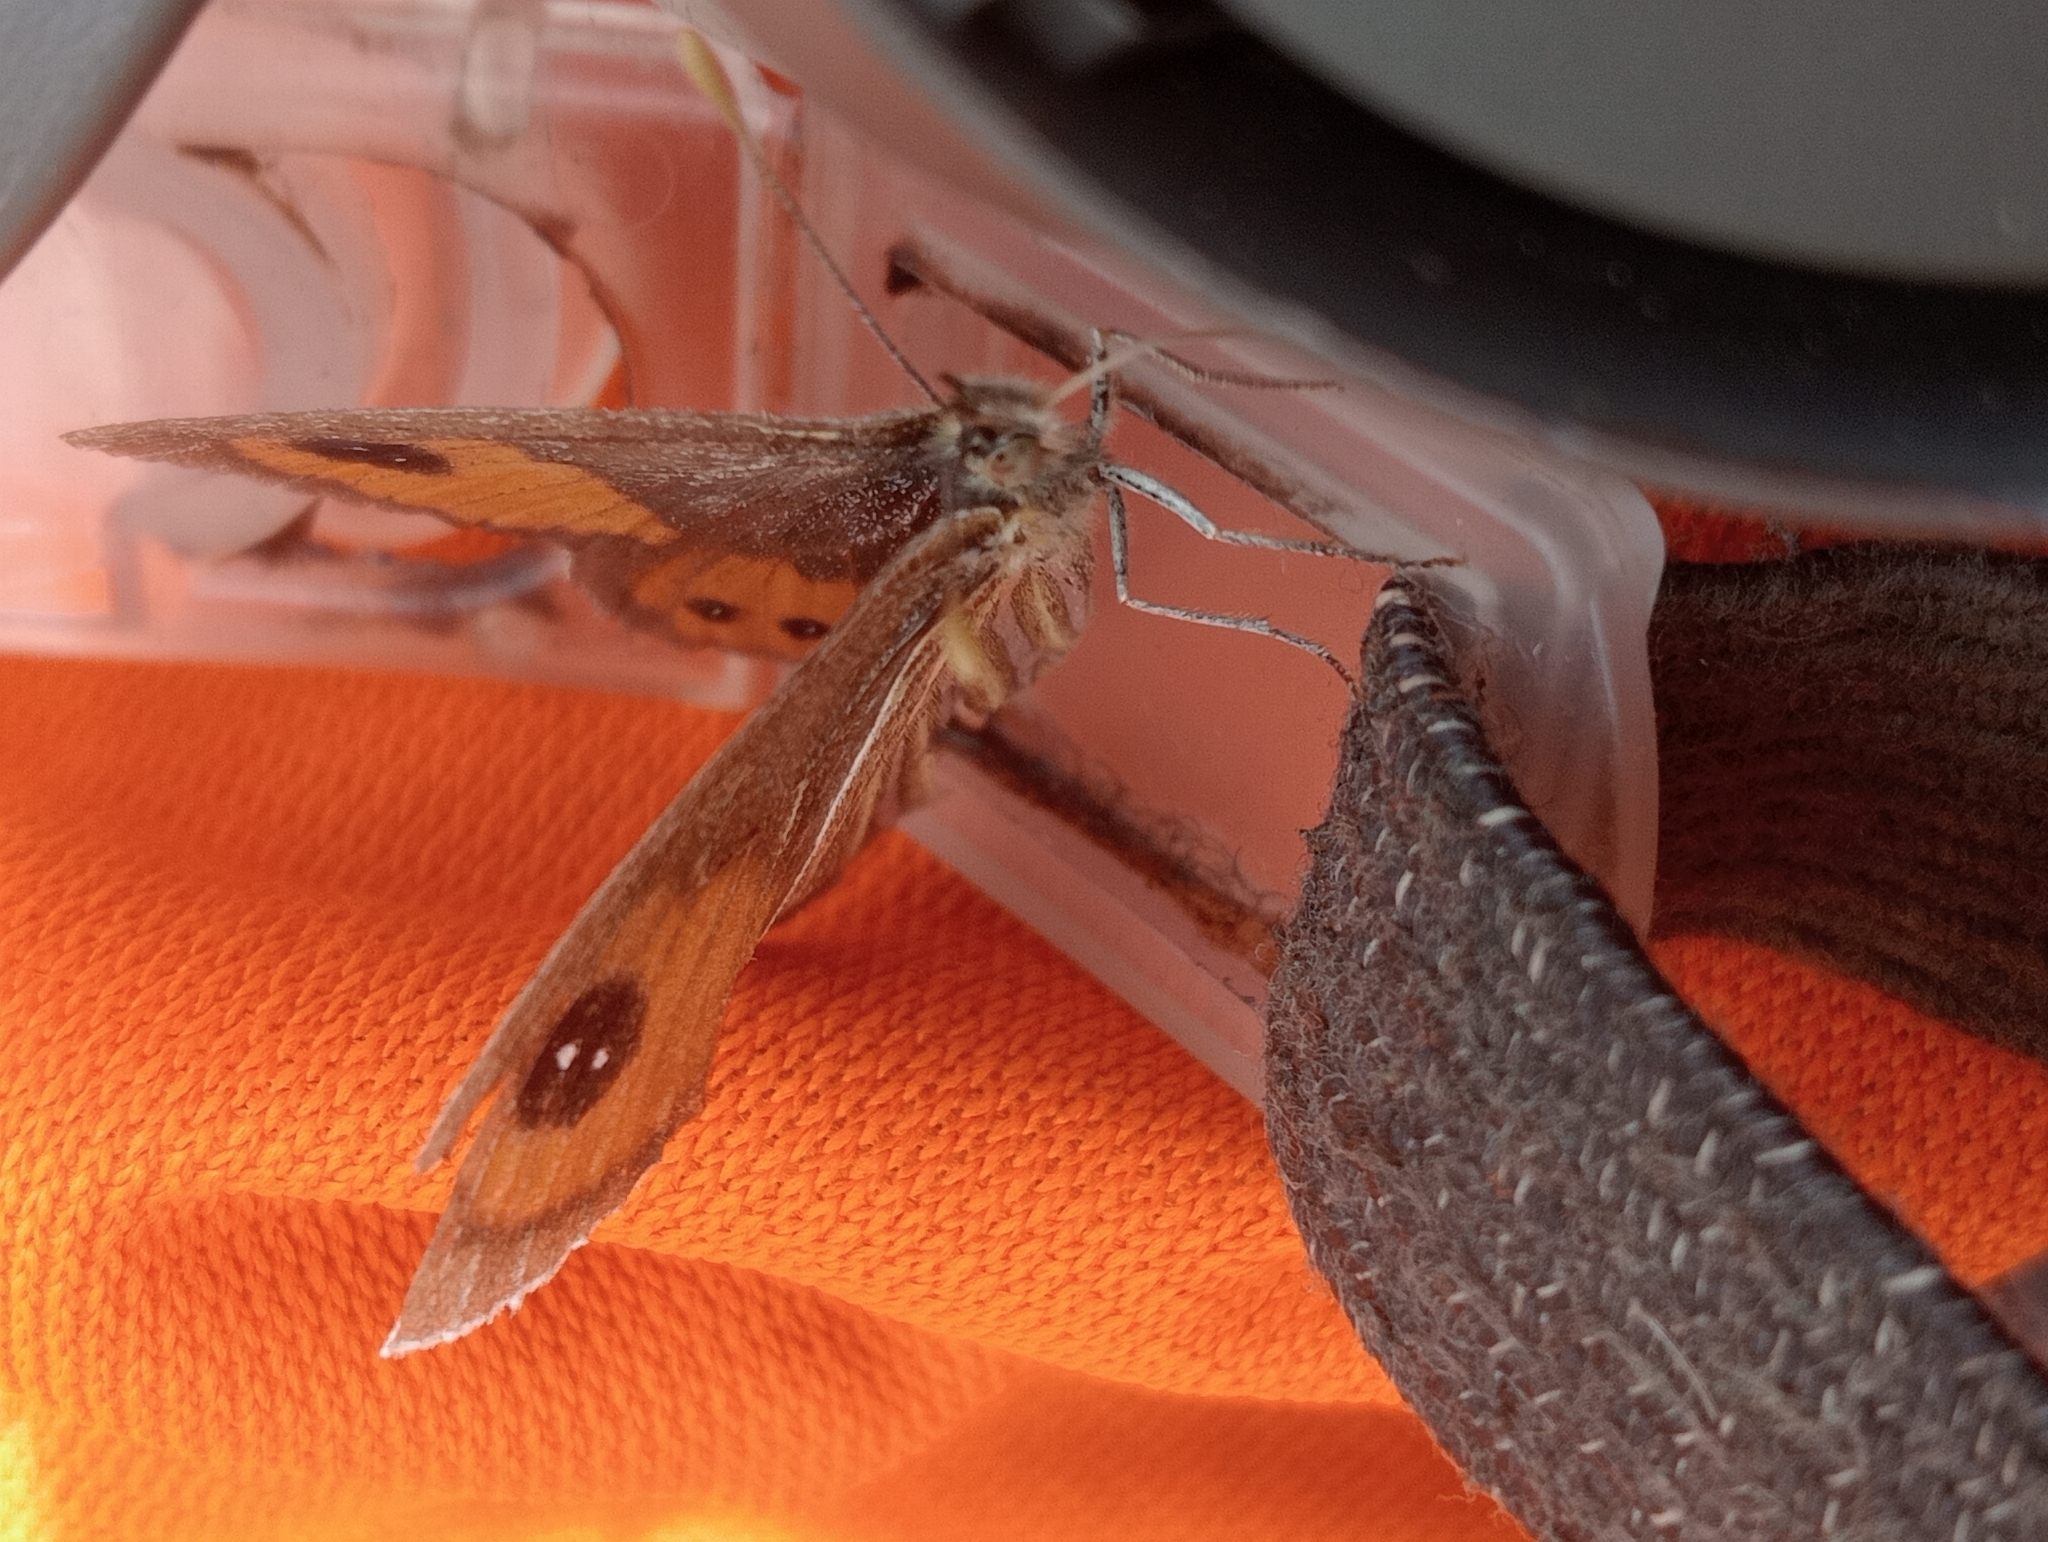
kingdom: Animalia
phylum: Arthropoda
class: Insecta
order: Lepidoptera
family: Nymphalidae
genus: Argyrophenga
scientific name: Argyrophenga antipodum
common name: Common tussock butterfly
